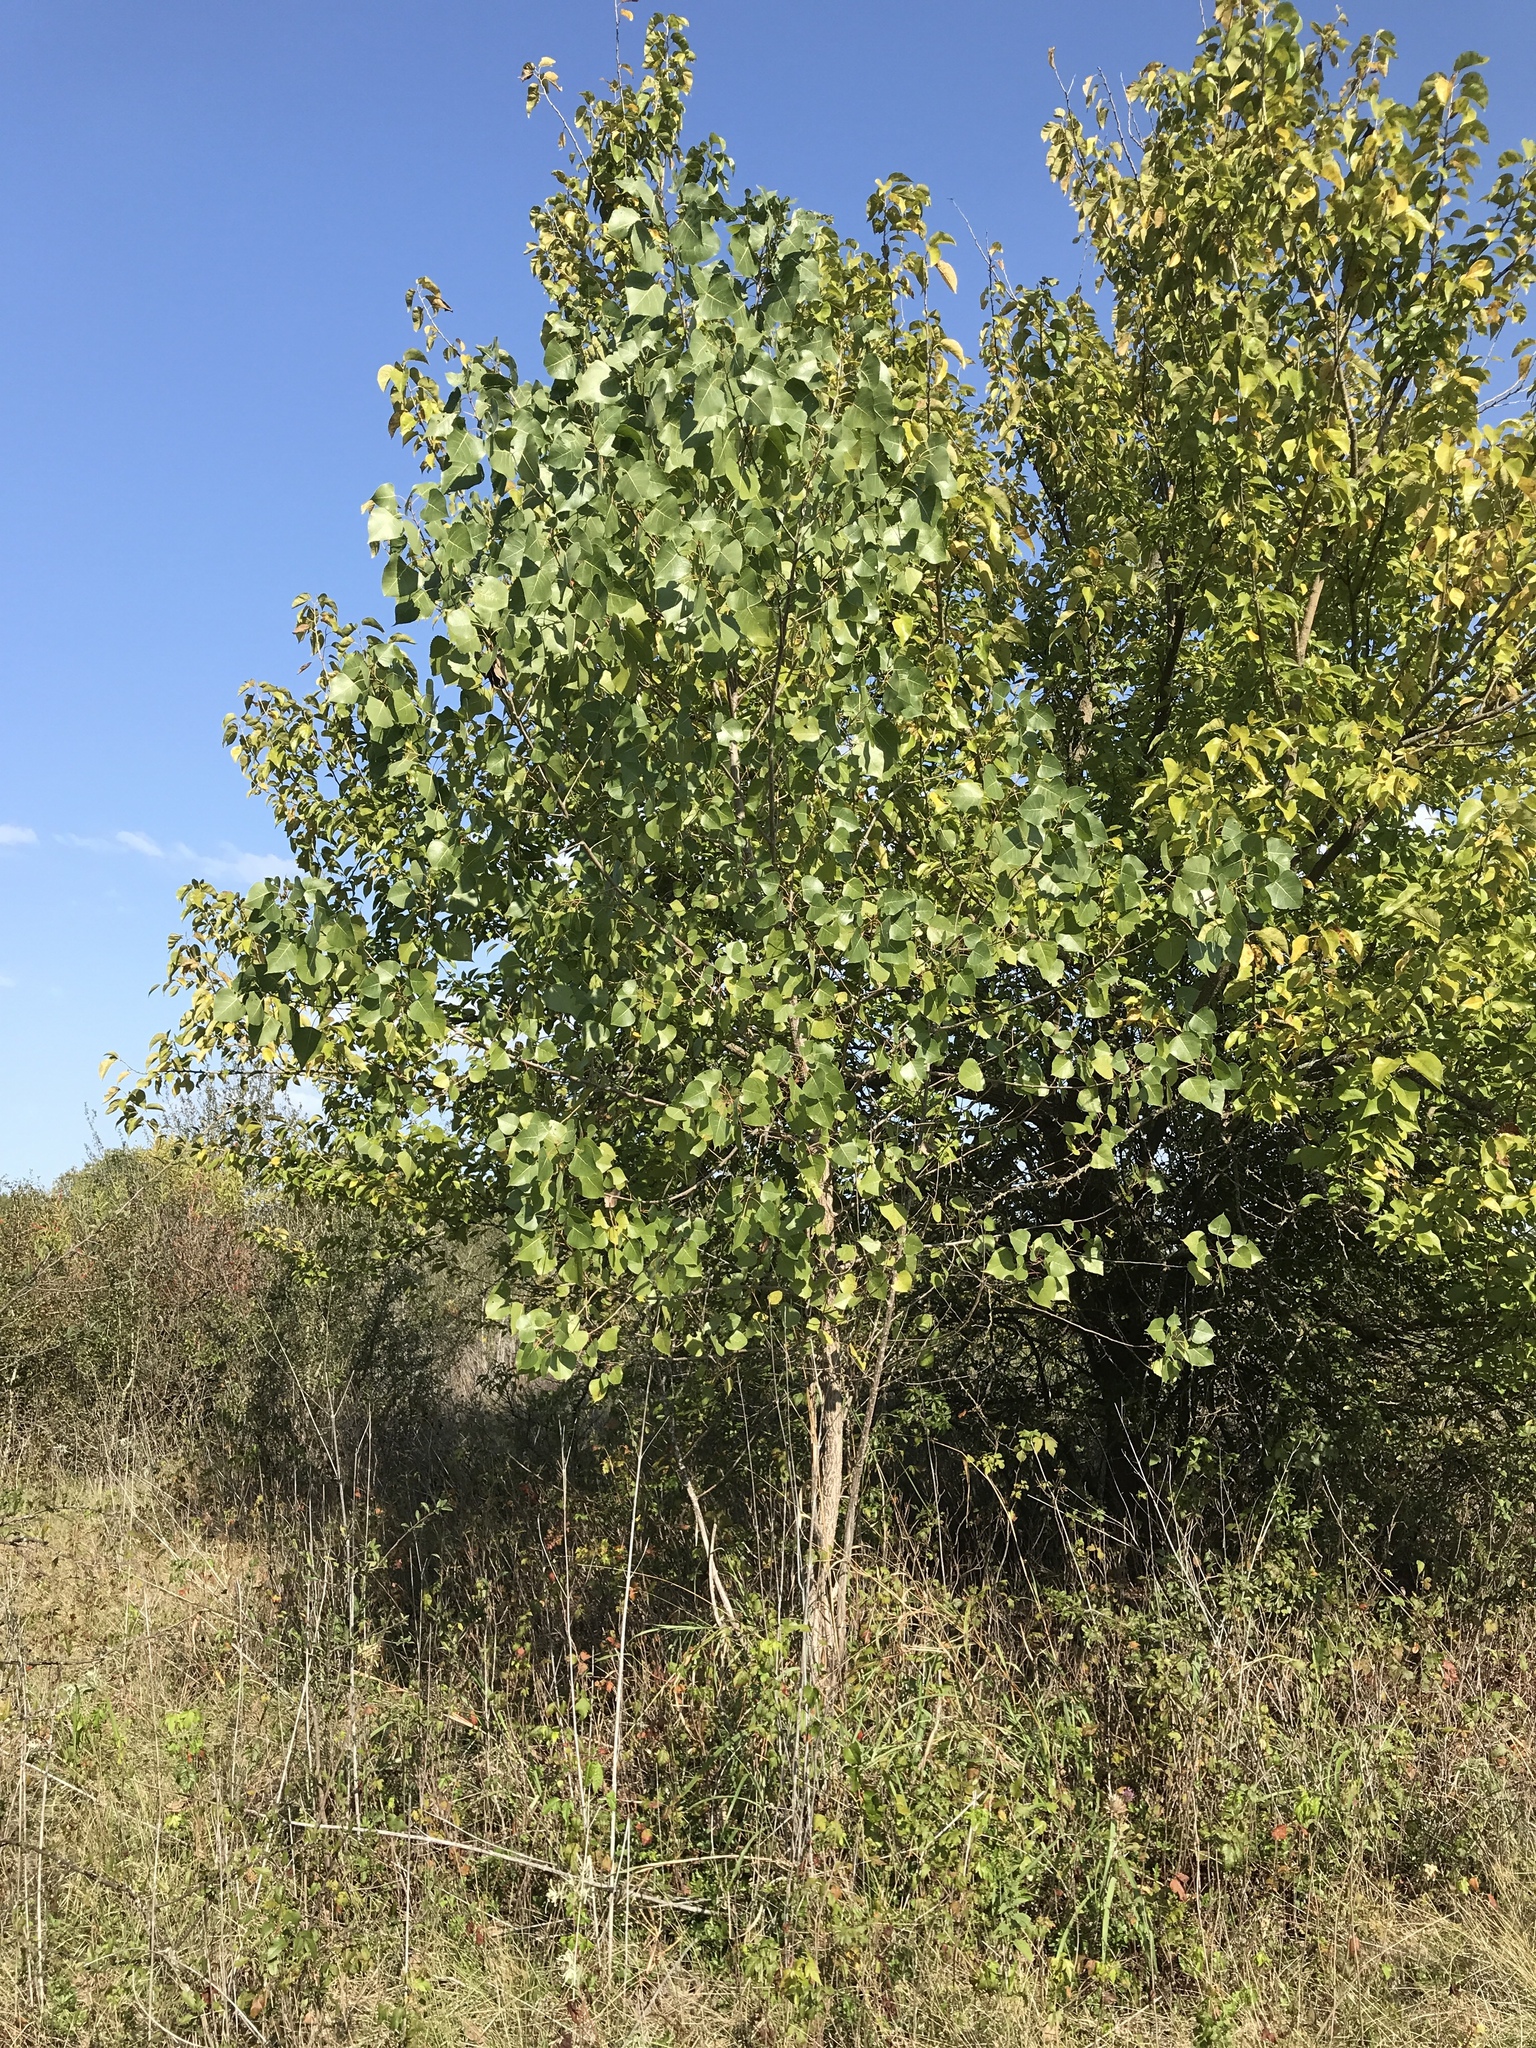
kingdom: Plantae
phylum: Tracheophyta
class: Magnoliopsida
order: Malpighiales
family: Salicaceae
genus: Populus
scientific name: Populus deltoides
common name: Eastern cottonwood
